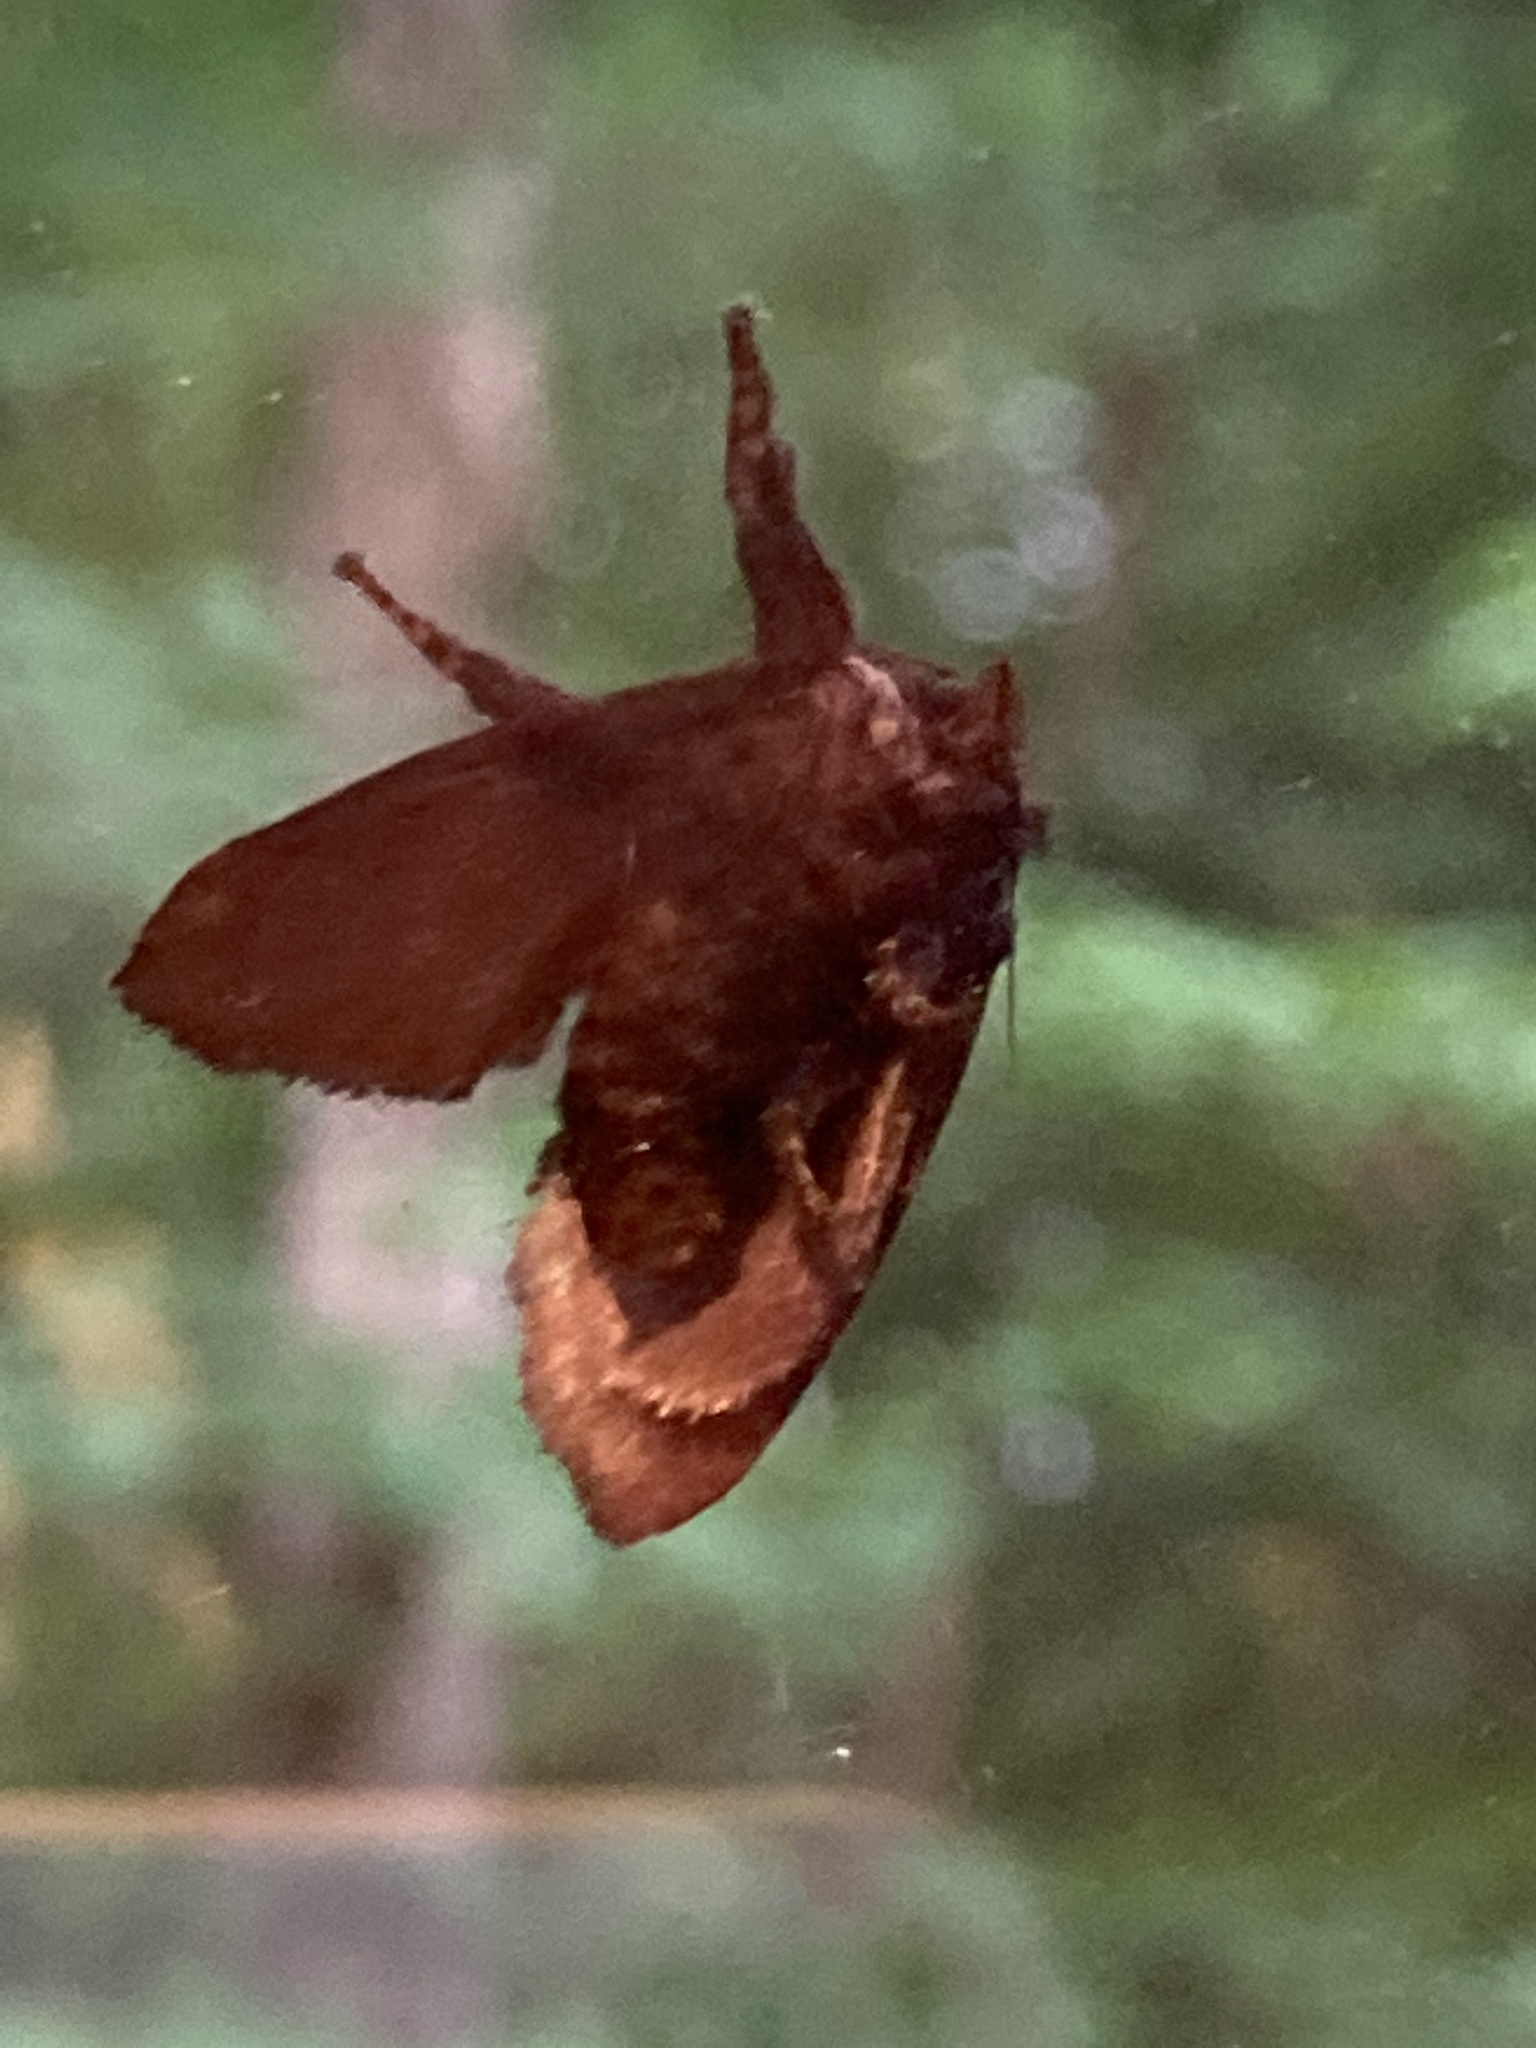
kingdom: Animalia
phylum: Arthropoda
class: Insecta
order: Lepidoptera
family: Limacodidae
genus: Acharia
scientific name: Acharia stimulea
